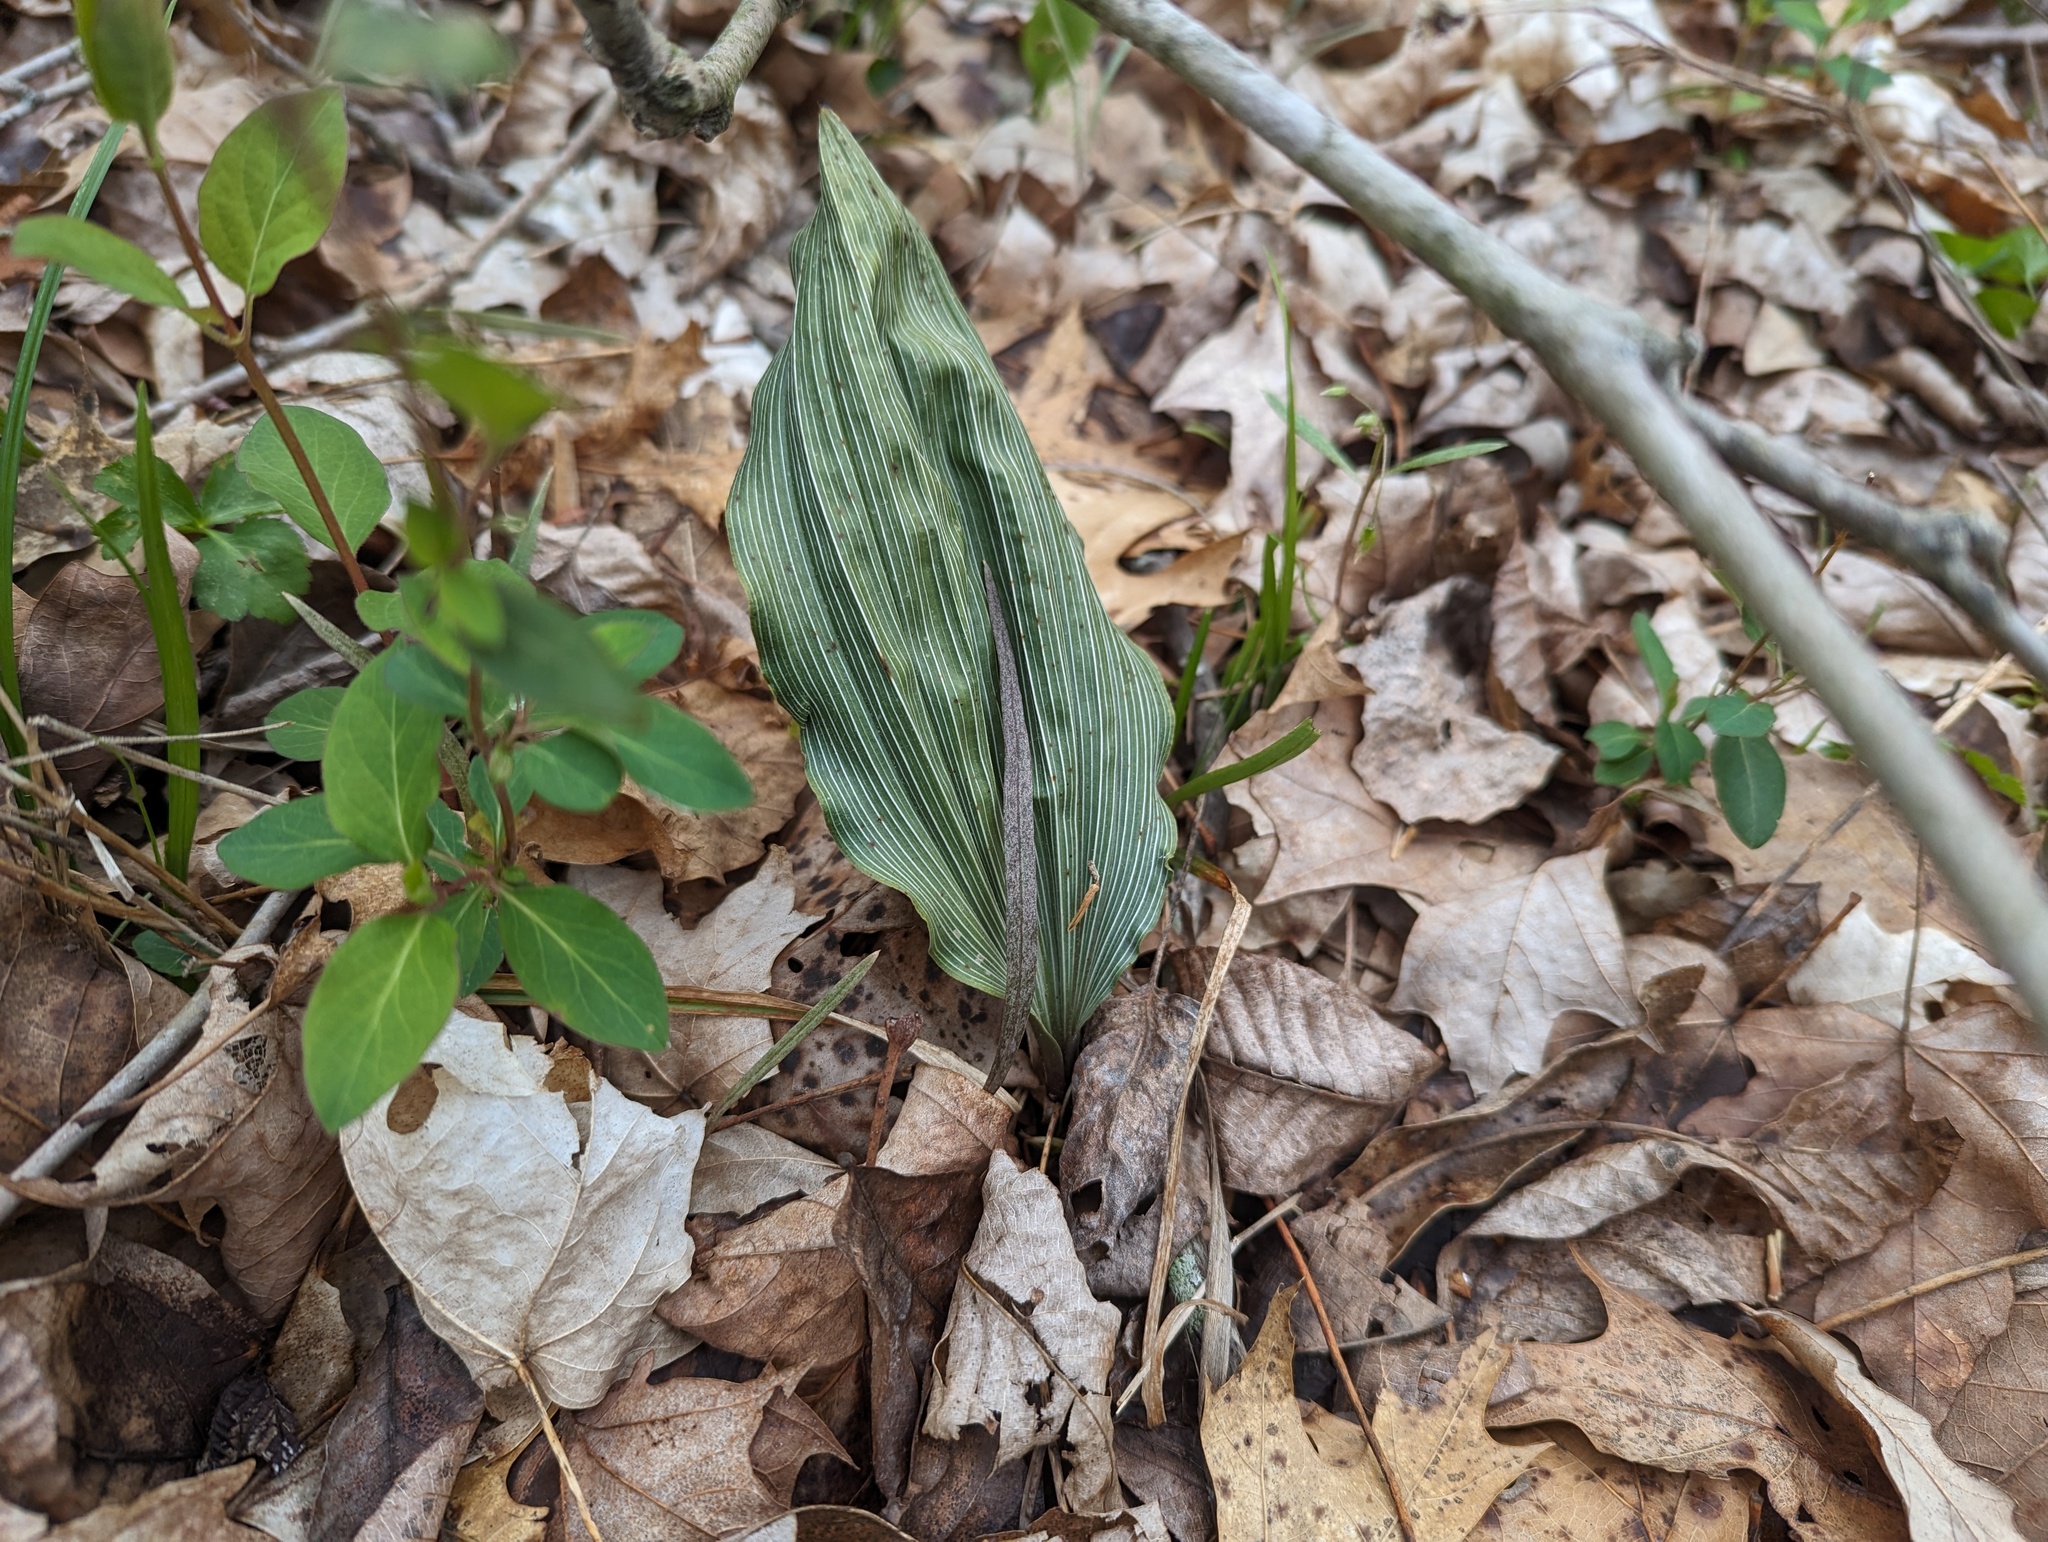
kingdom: Plantae
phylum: Tracheophyta
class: Liliopsida
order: Asparagales
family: Orchidaceae
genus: Aplectrum
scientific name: Aplectrum hyemale
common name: Adam-and-eve
